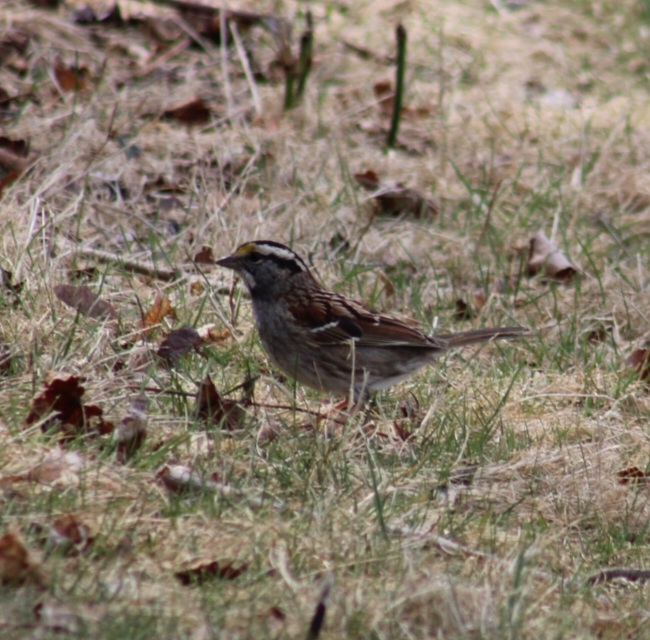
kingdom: Animalia
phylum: Chordata
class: Aves
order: Passeriformes
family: Passerellidae
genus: Zonotrichia
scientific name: Zonotrichia albicollis
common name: White-throated sparrow
